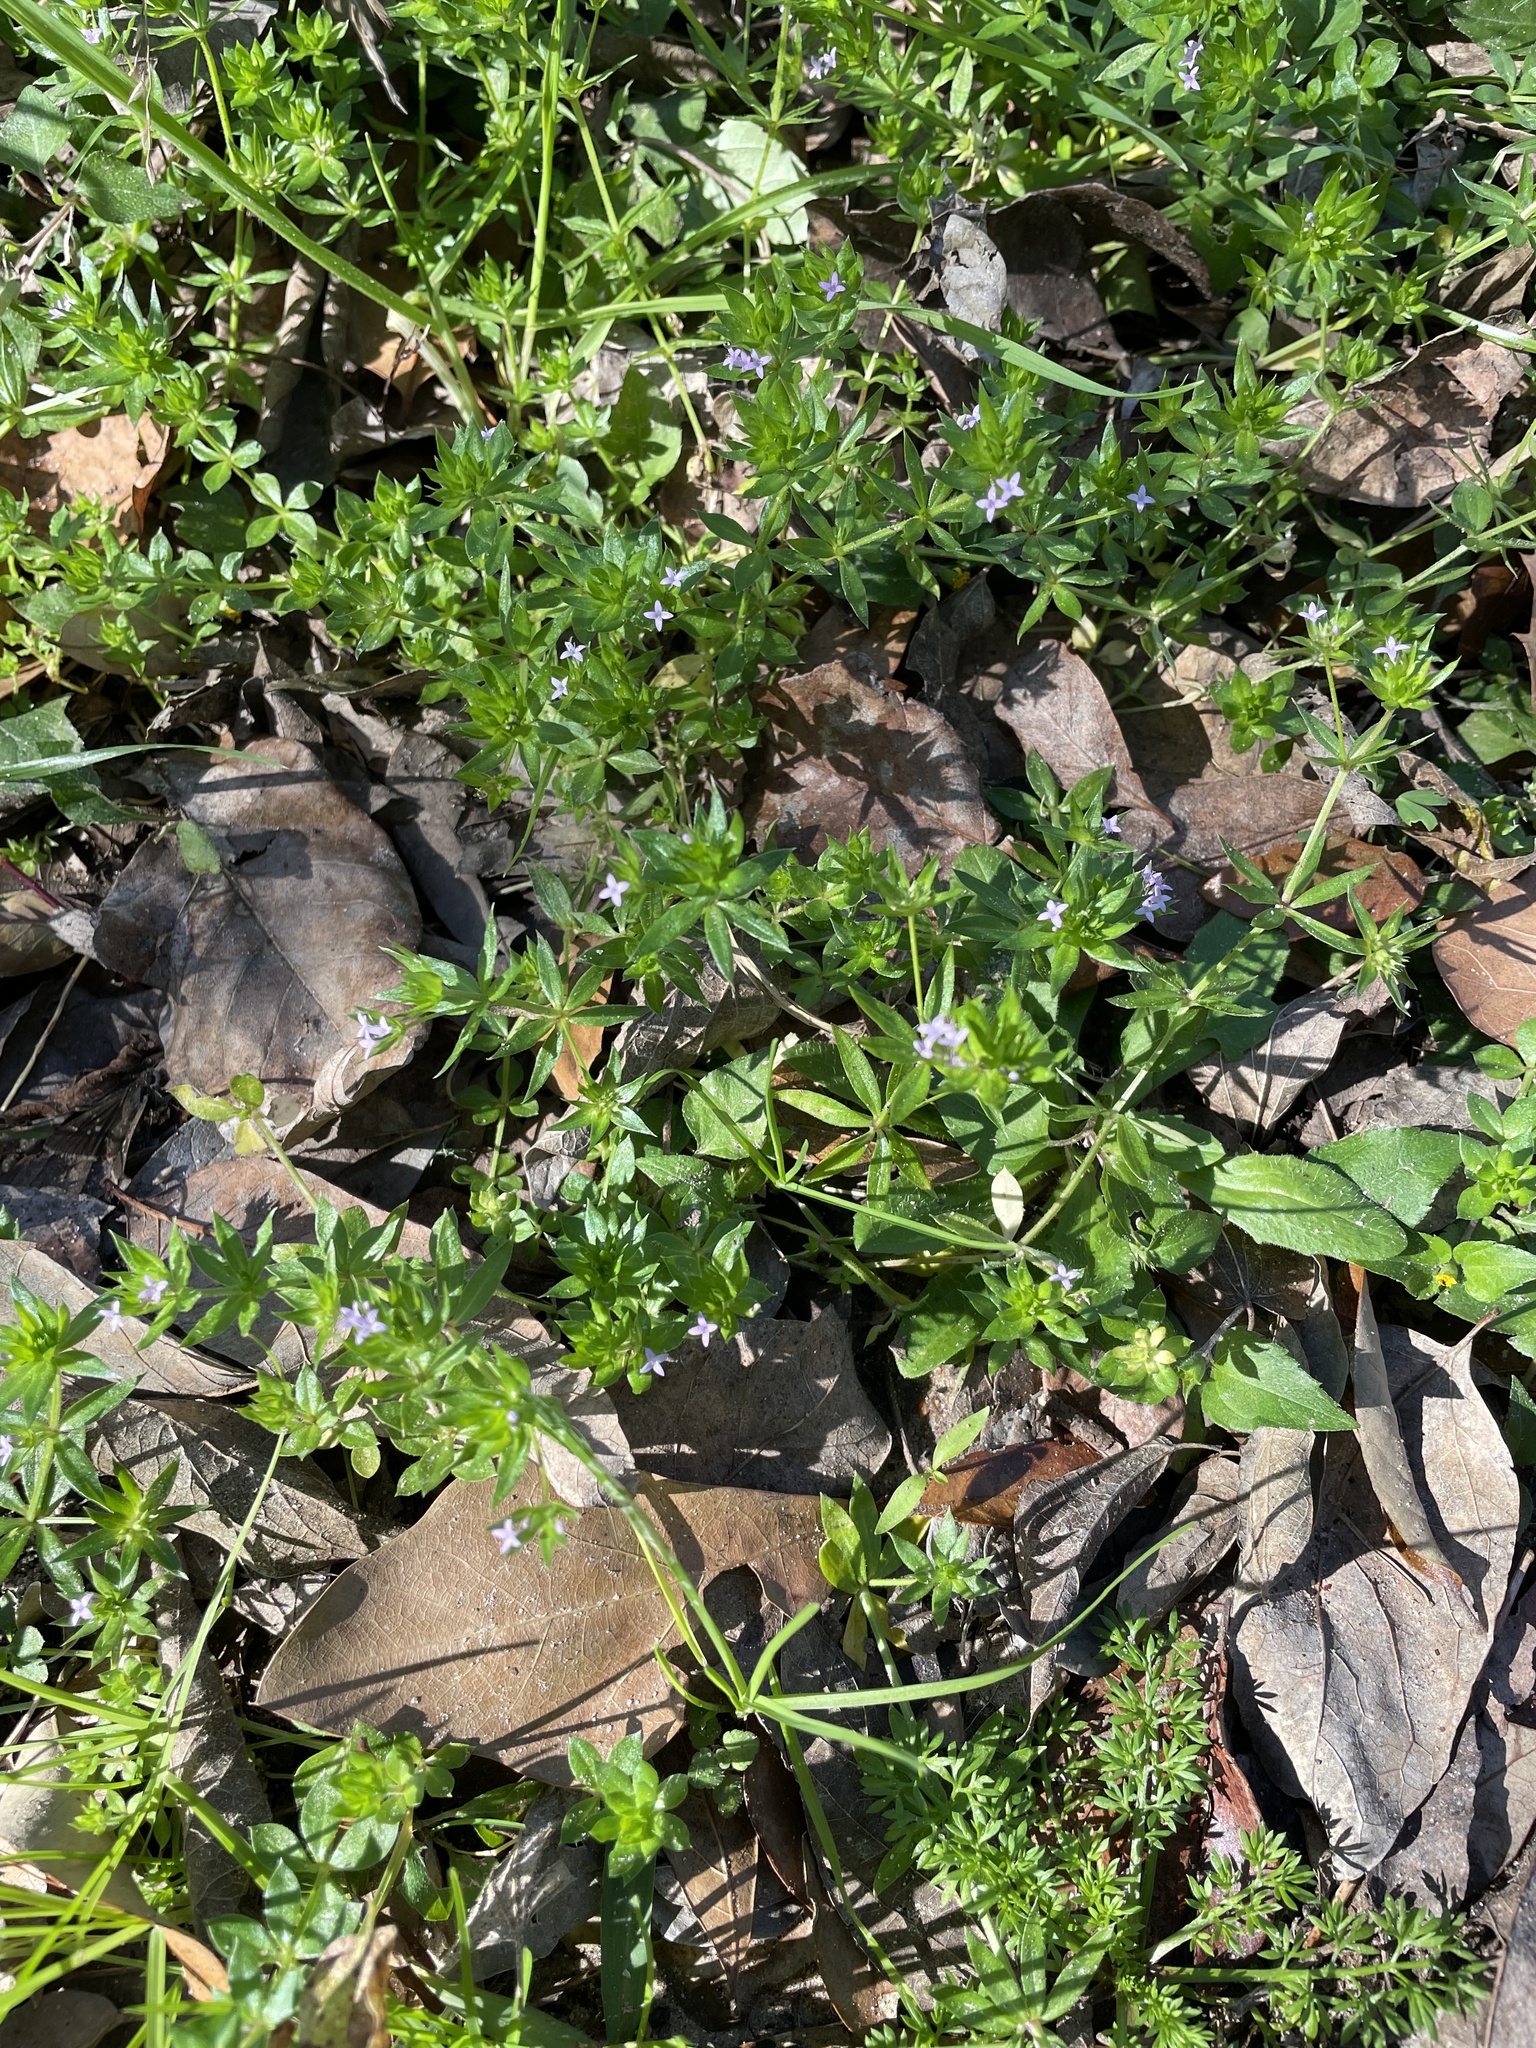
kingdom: Plantae
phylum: Tracheophyta
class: Magnoliopsida
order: Gentianales
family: Rubiaceae
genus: Sherardia
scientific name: Sherardia arvensis
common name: Field madder
